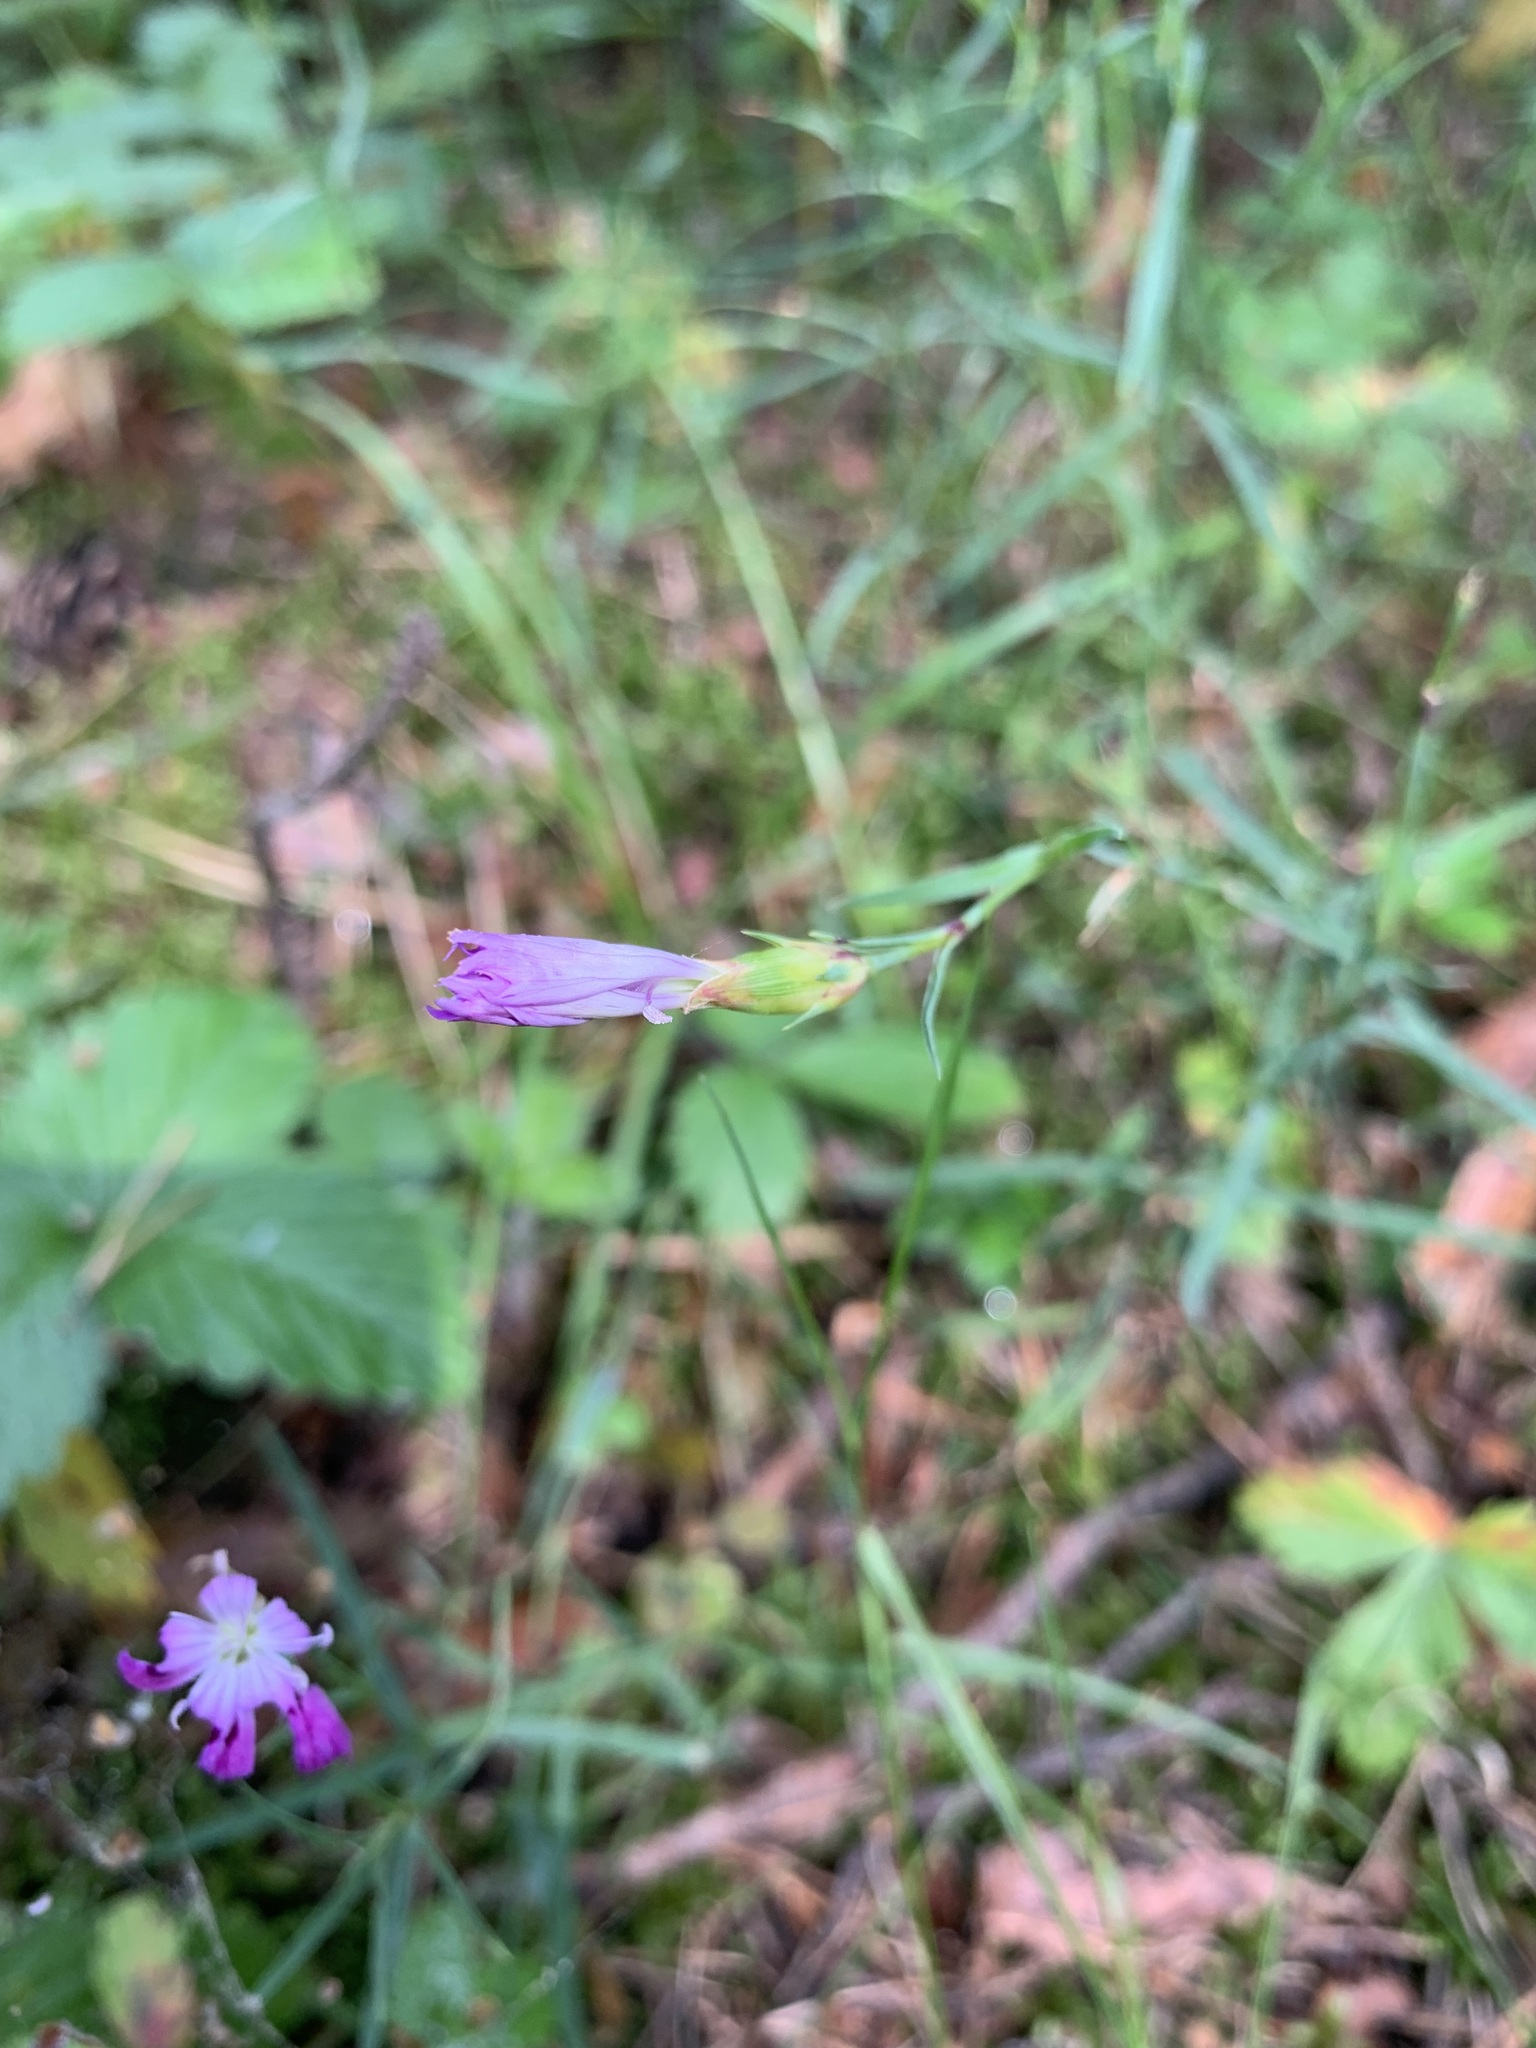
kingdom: Plantae
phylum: Tracheophyta
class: Magnoliopsida
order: Caryophyllales
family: Caryophyllaceae
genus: Dianthus
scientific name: Dianthus chinensis
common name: Rainbow pink
